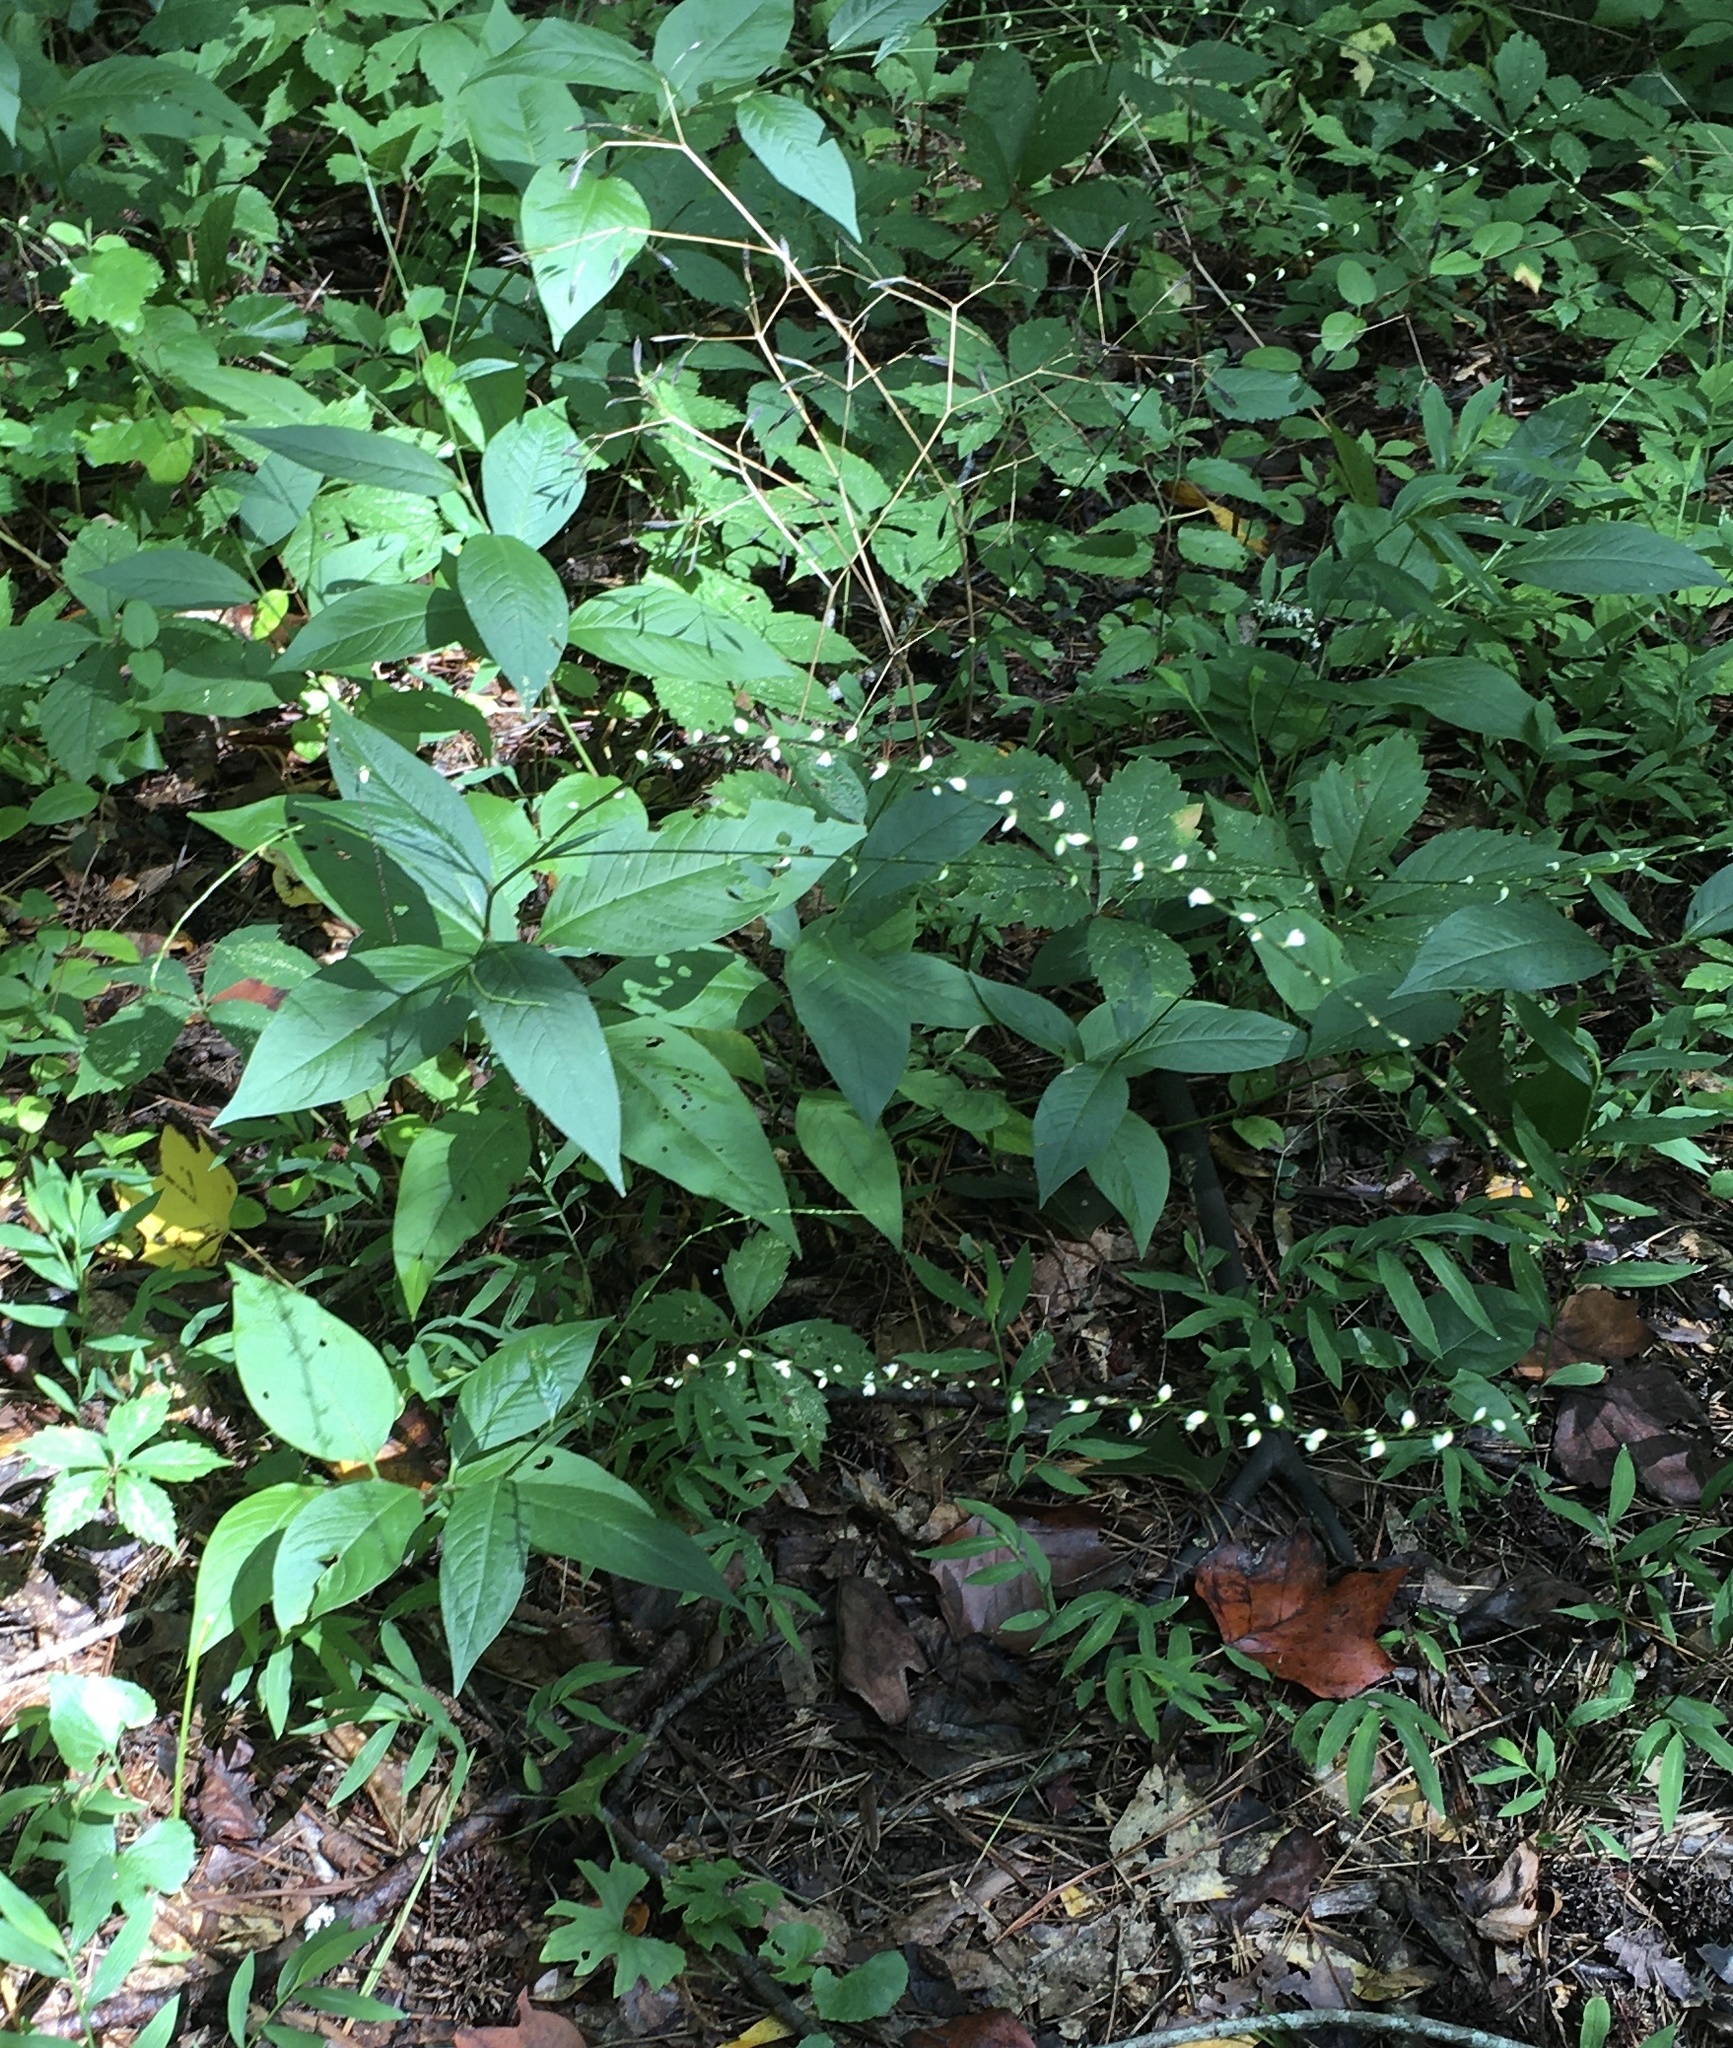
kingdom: Plantae
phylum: Tracheophyta
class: Magnoliopsida
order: Caryophyllales
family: Polygonaceae
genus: Persicaria
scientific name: Persicaria virginiana
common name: Jumpseed
